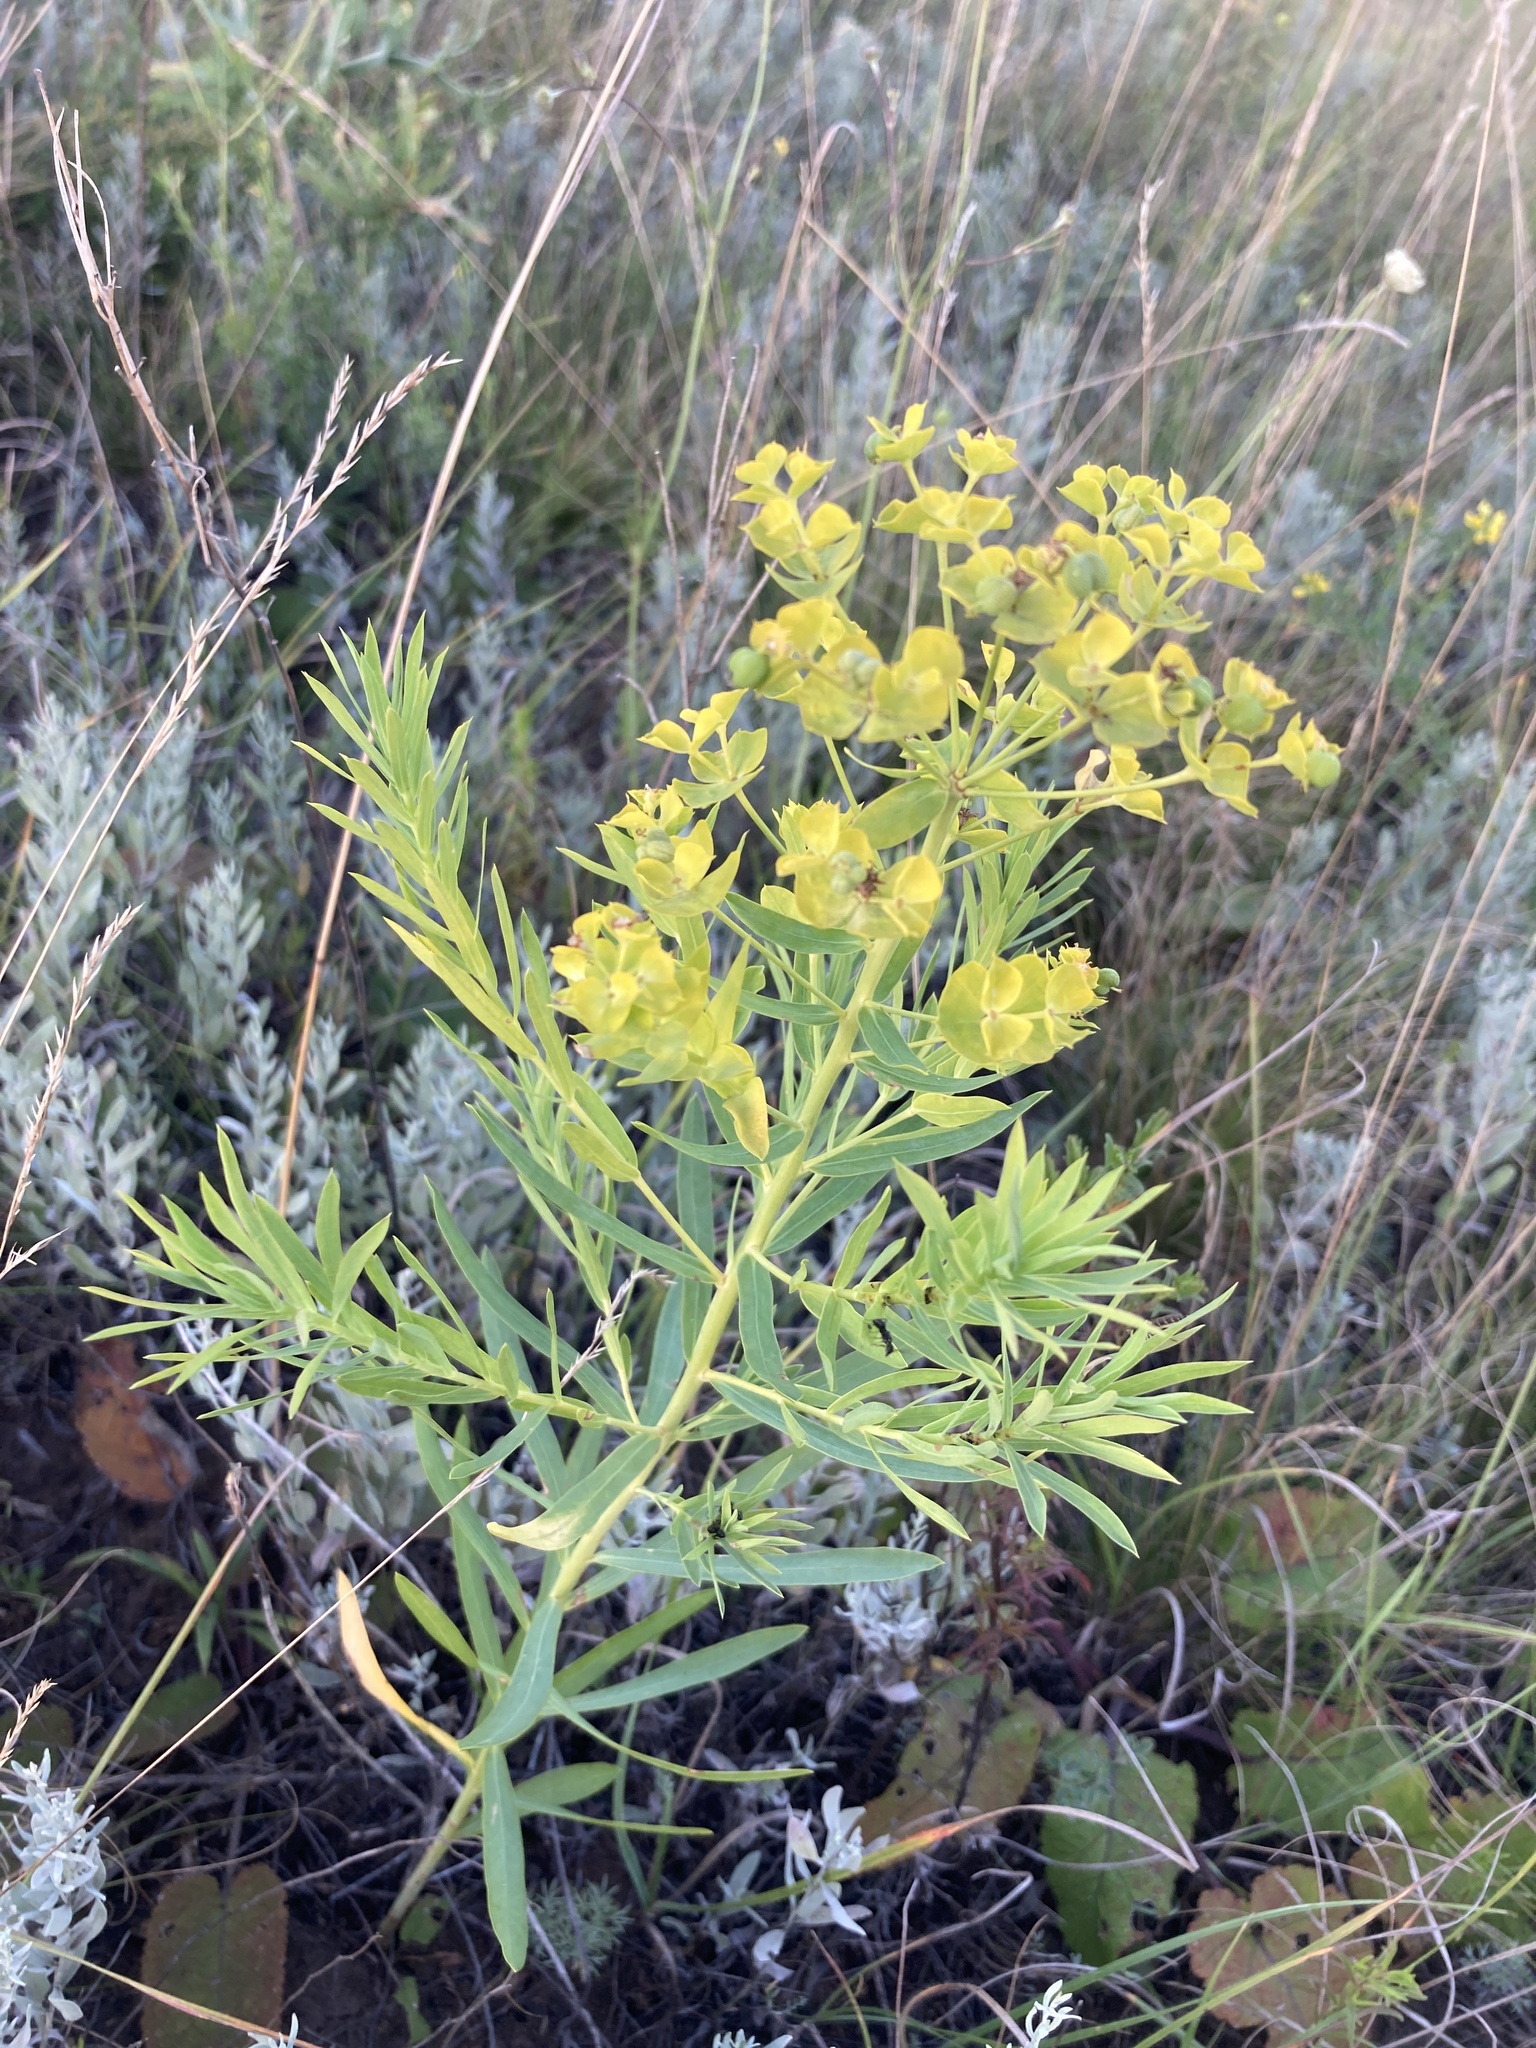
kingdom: Plantae
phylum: Tracheophyta
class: Magnoliopsida
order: Malpighiales
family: Euphorbiaceae
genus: Euphorbia
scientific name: Euphorbia virgata
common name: Leafy spurge
